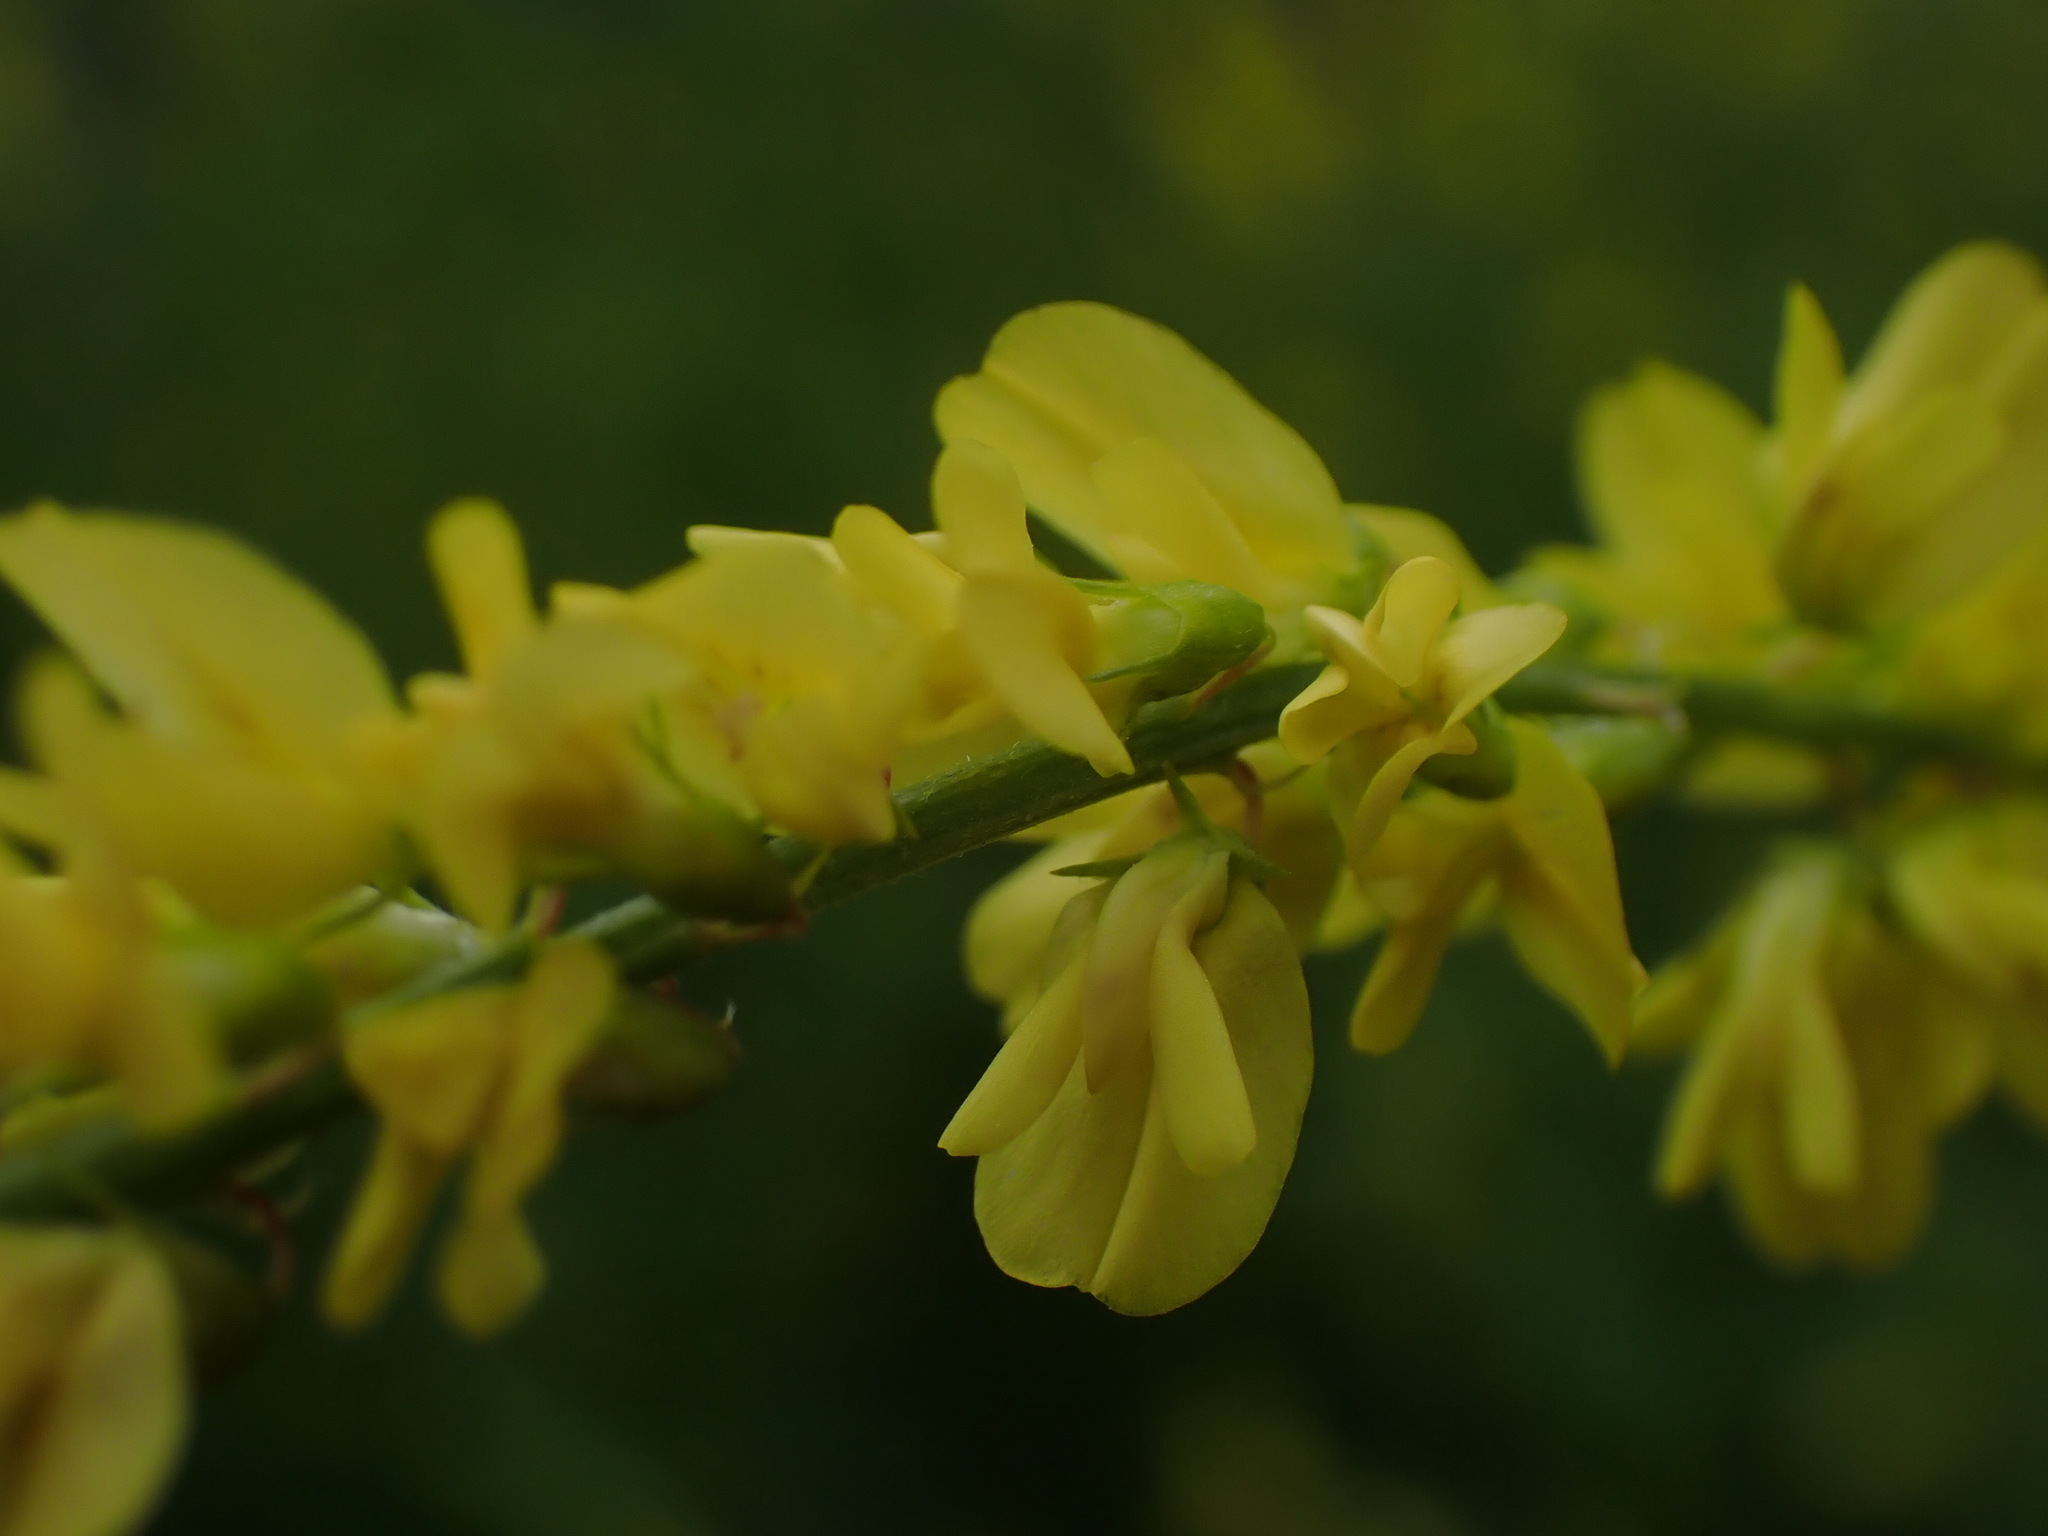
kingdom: Plantae
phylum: Tracheophyta
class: Magnoliopsida
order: Fabales
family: Fabaceae
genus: Melilotus
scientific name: Melilotus officinalis
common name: Sweetclover
